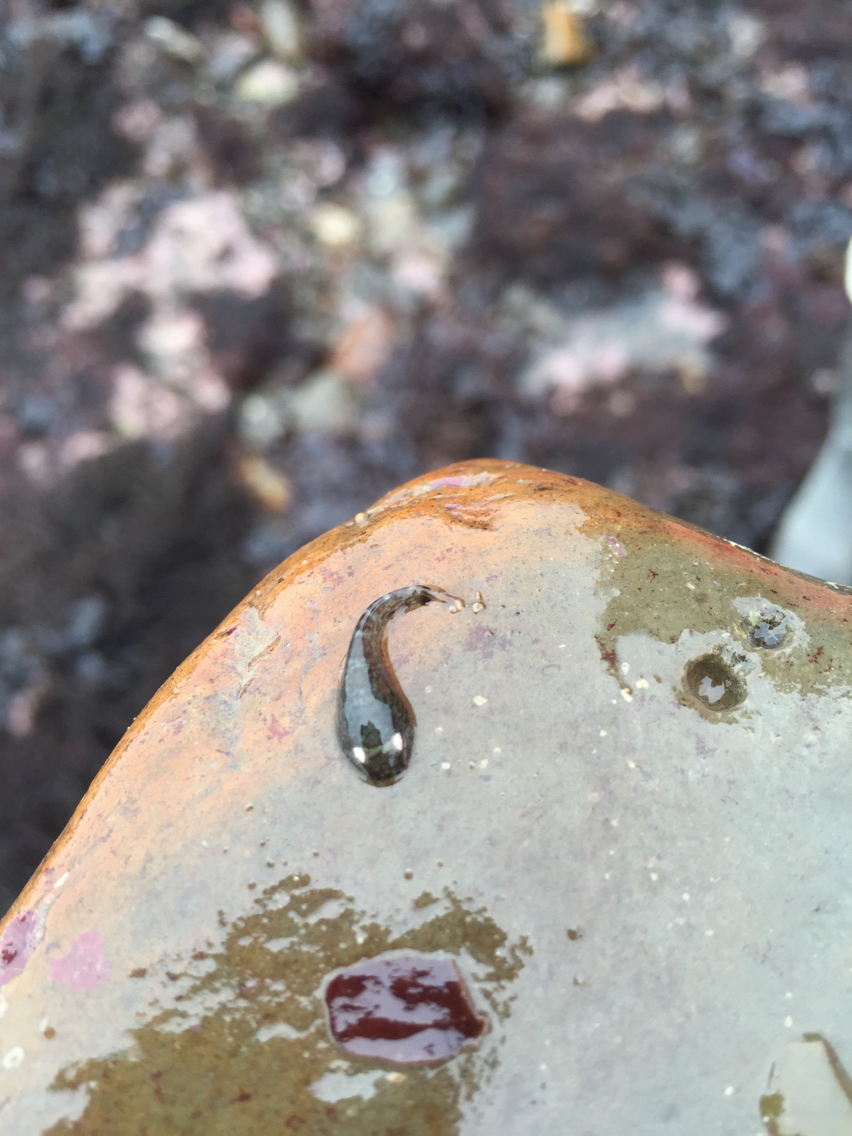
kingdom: Animalia
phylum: Chordata
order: Gobiesociformes
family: Gobiesocidae
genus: Gobiesox
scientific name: Gobiesox maeandricus
